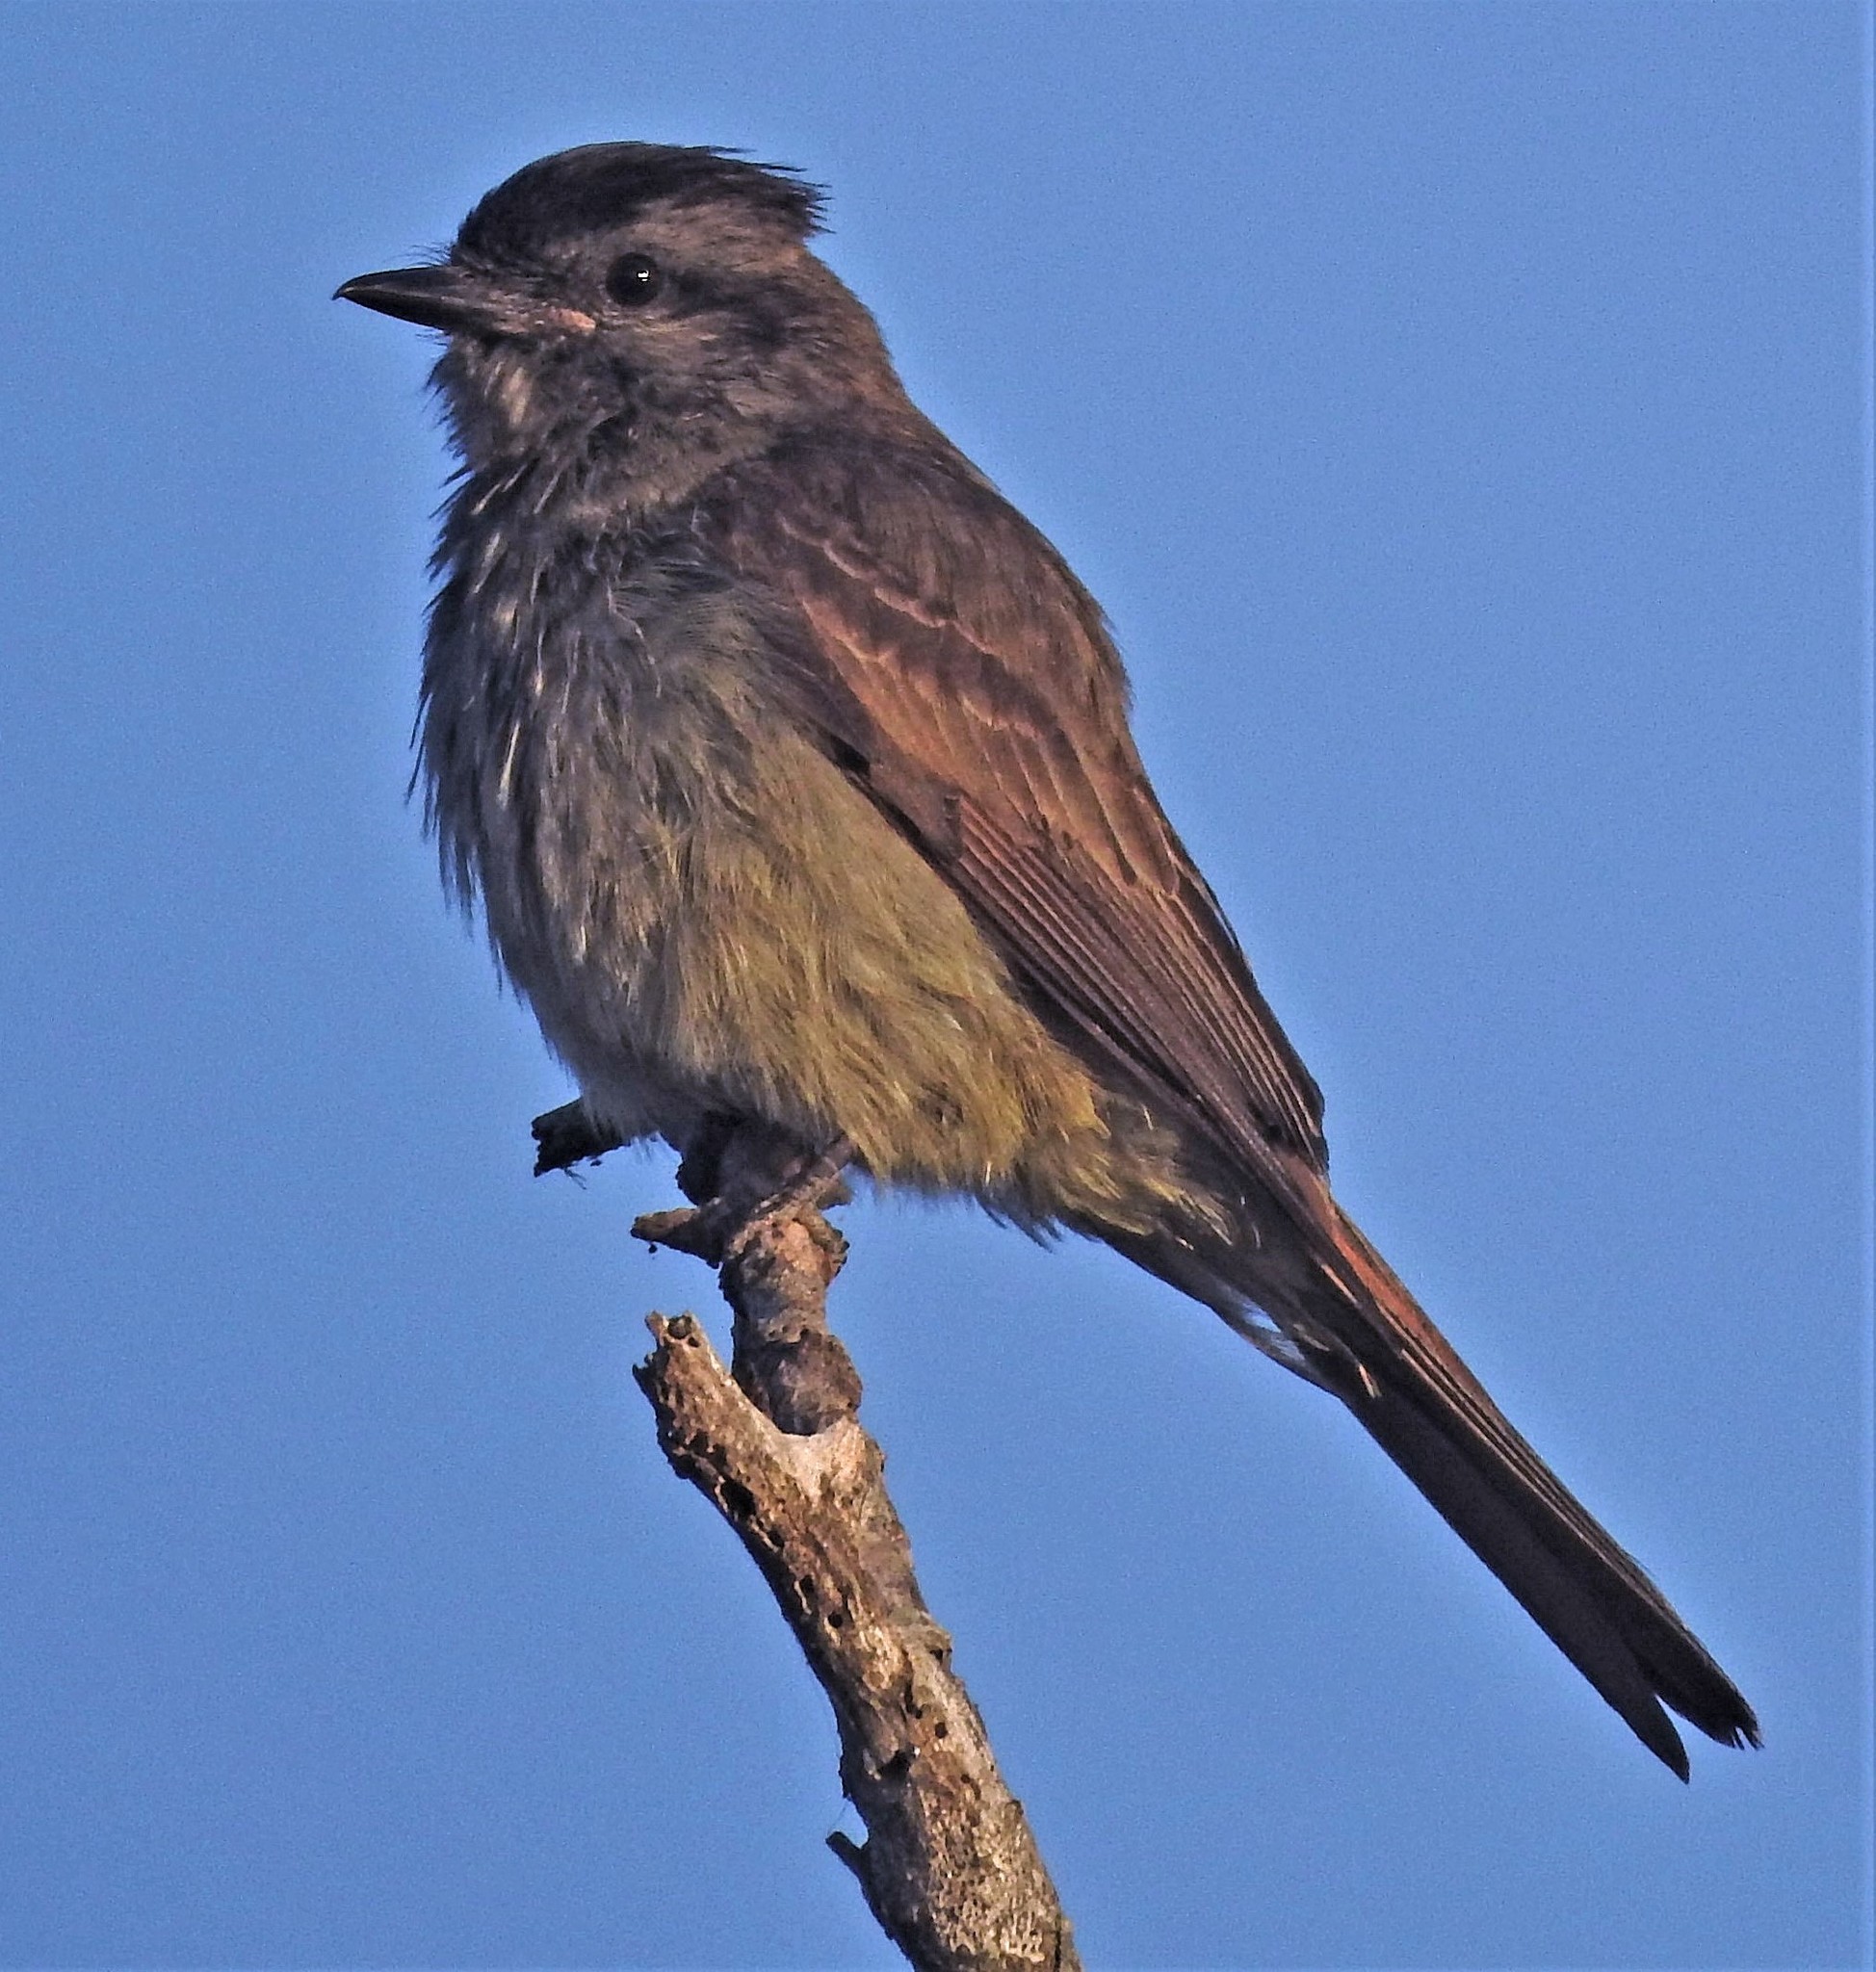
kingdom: Animalia
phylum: Chordata
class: Aves
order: Passeriformes
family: Tyrannidae
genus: Empidonomus
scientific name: Empidonomus aurantioatrocristatus
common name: Crowned slaty flycatcher
